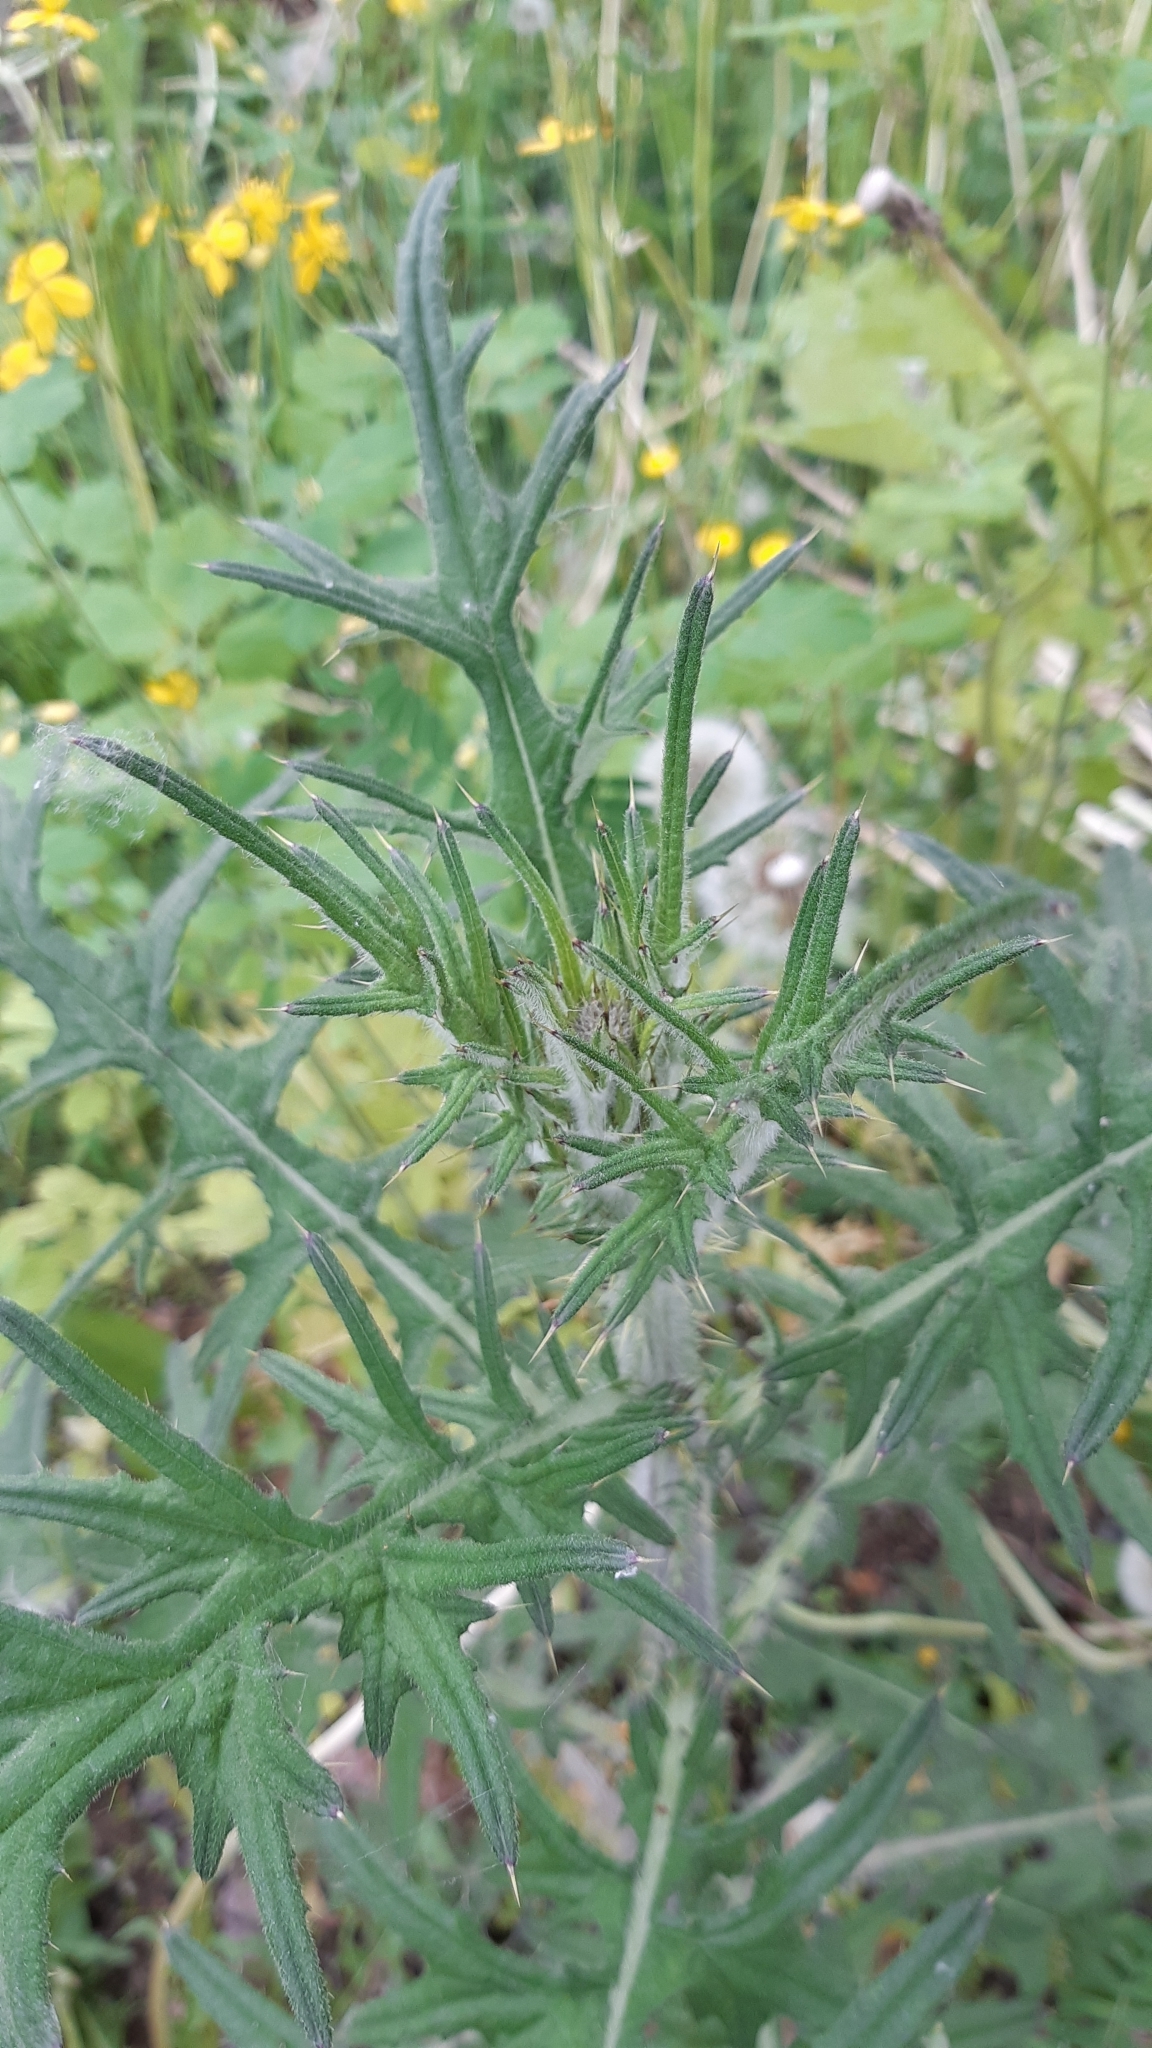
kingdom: Plantae
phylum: Tracheophyta
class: Magnoliopsida
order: Asterales
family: Asteraceae
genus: Cirsium
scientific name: Cirsium vulgare
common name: Bull thistle
